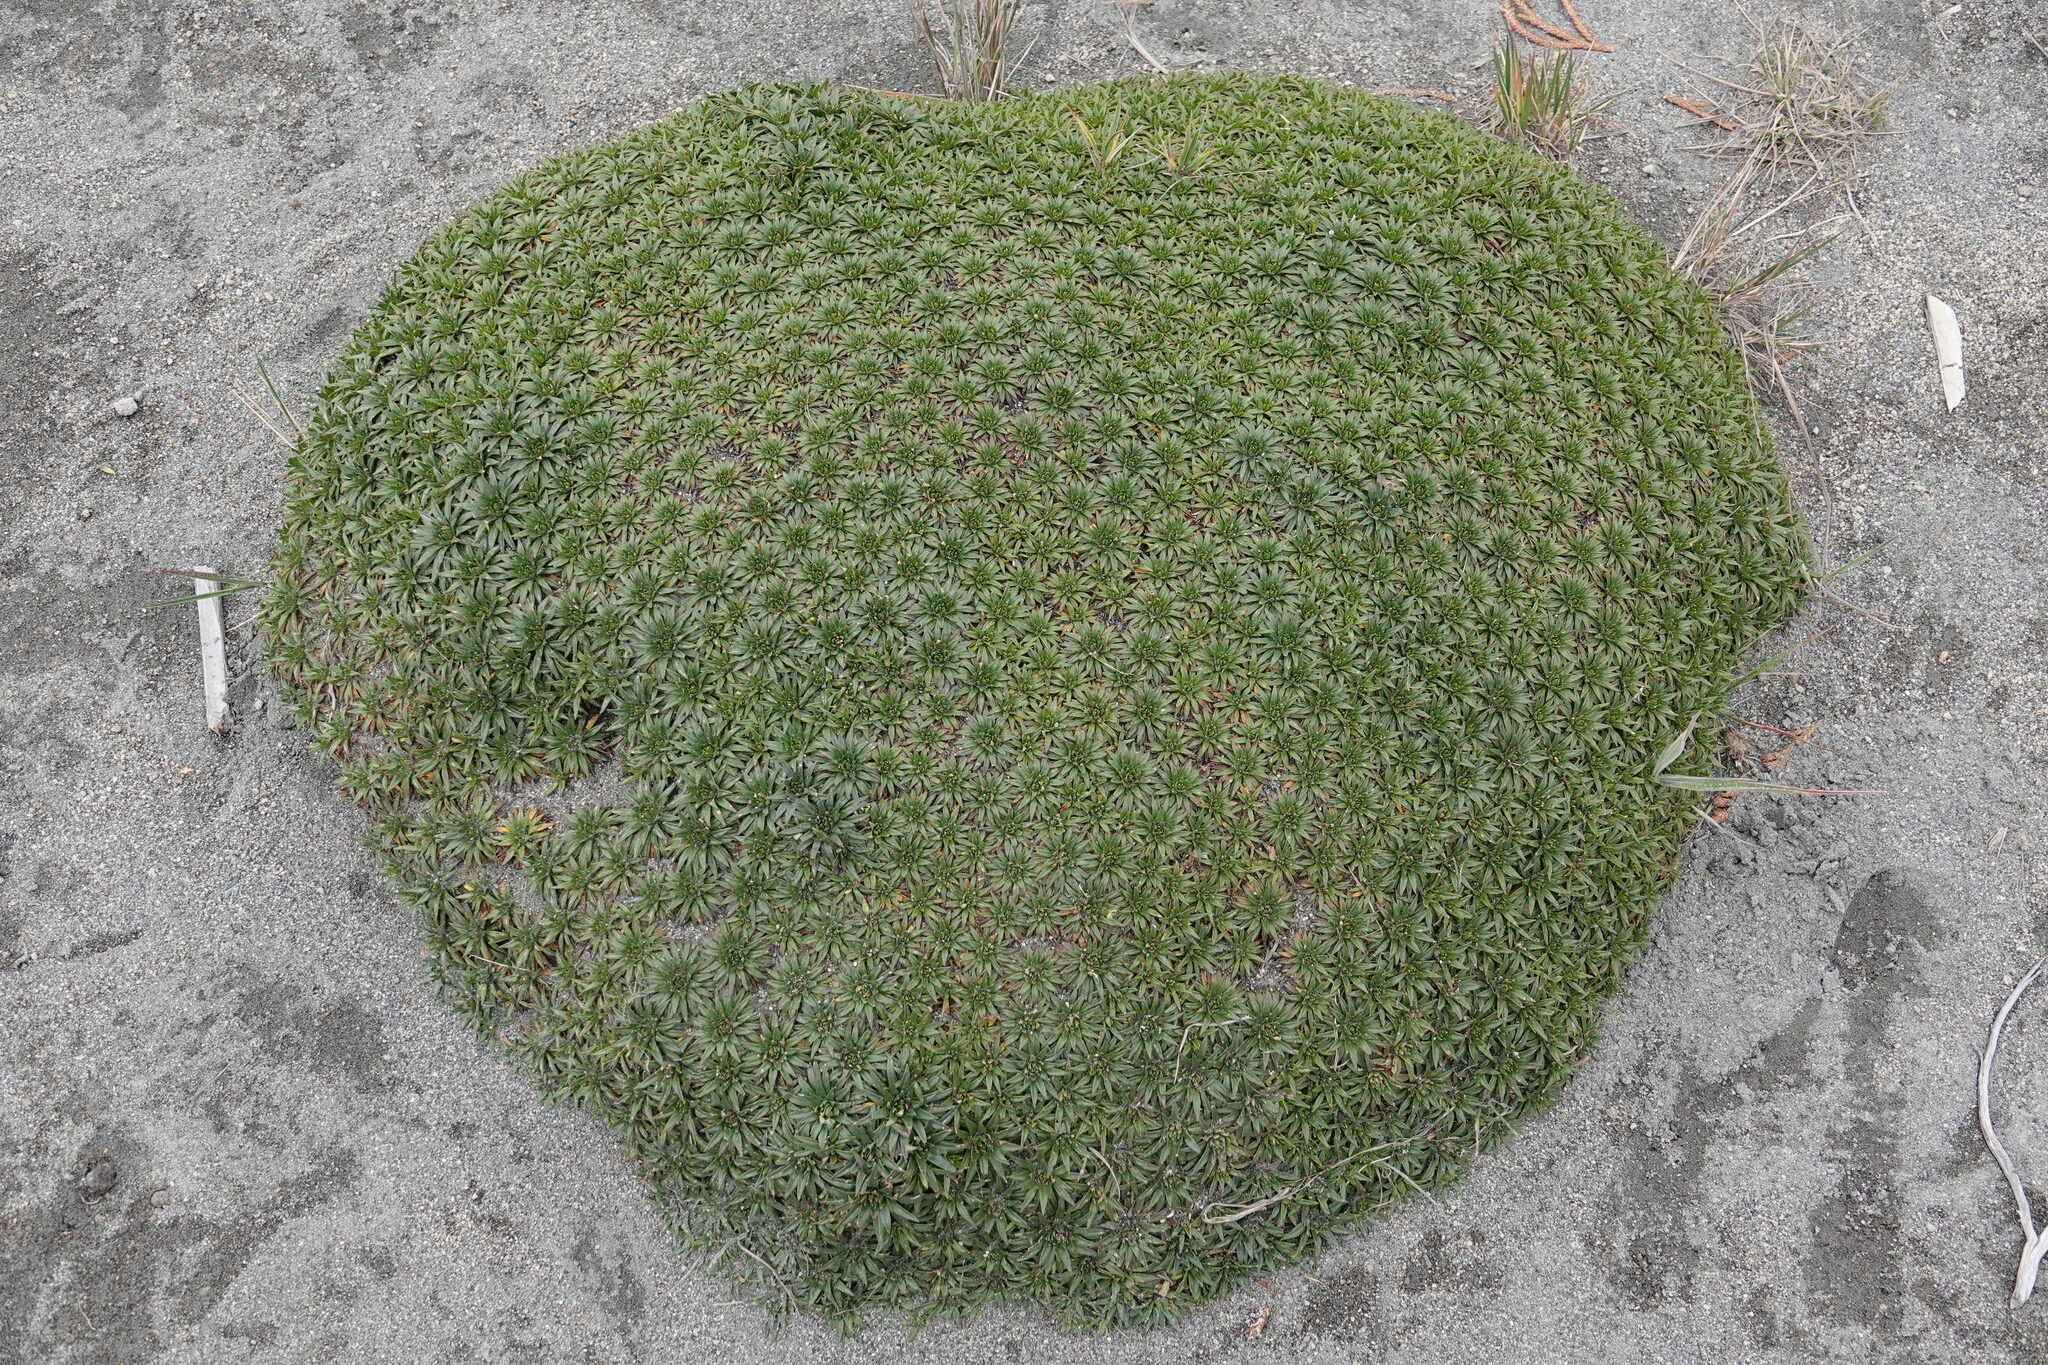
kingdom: Plantae
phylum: Tracheophyta
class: Magnoliopsida
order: Lamiales
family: Plantaginaceae
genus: Plantago
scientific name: Plantago rigida
